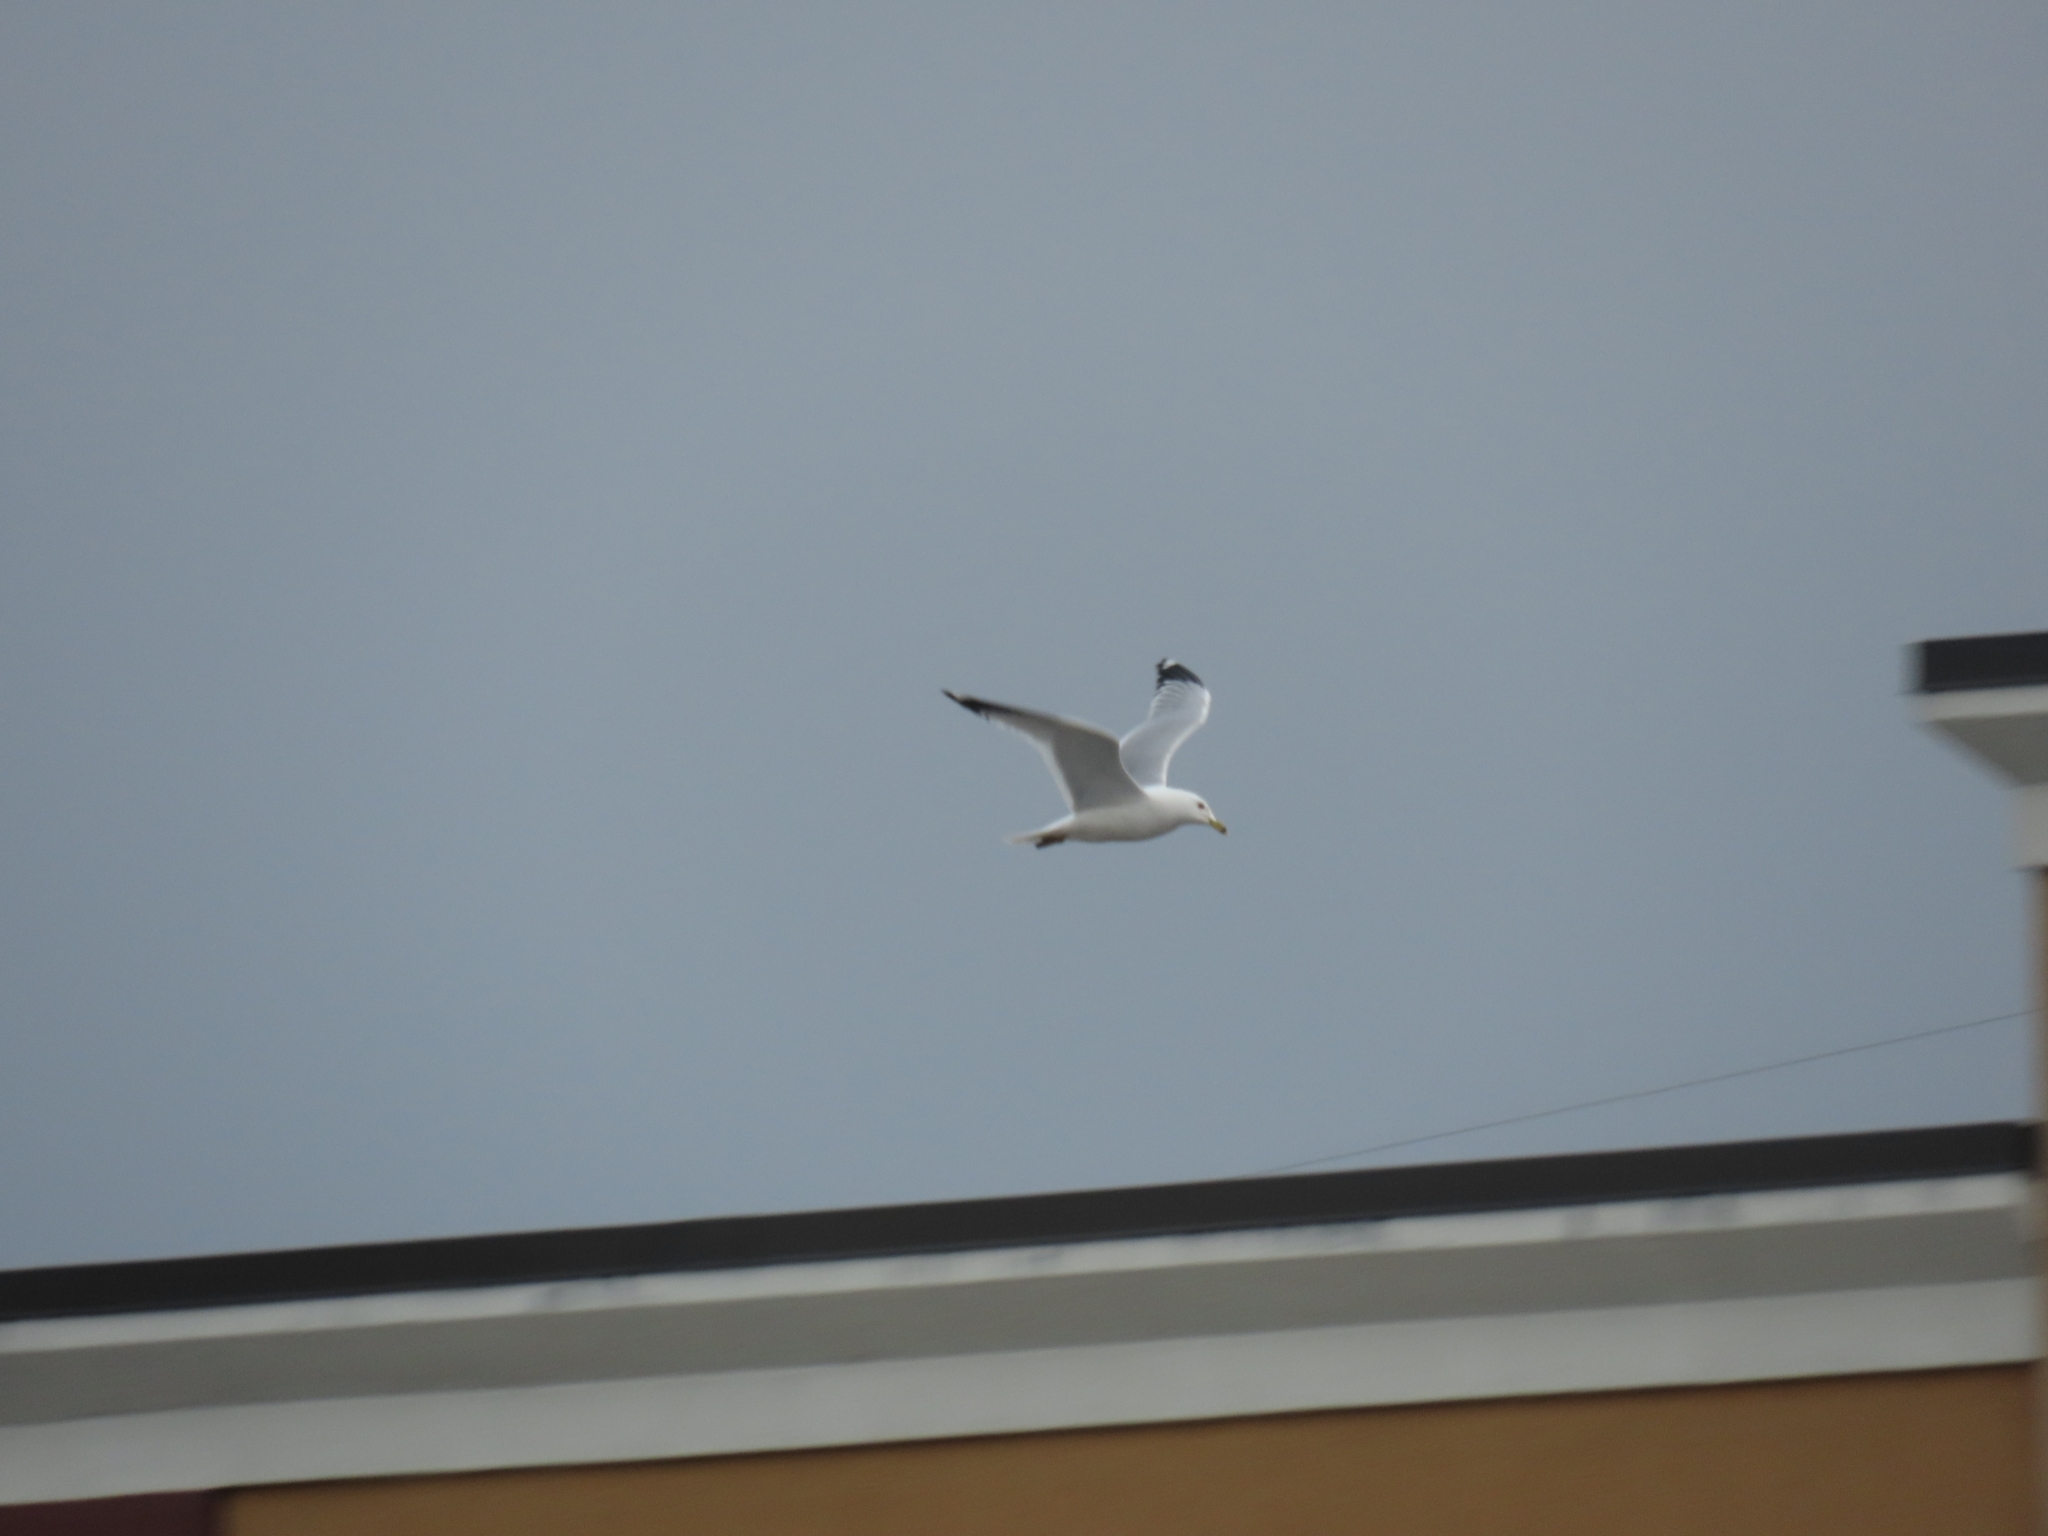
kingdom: Animalia
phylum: Chordata
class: Aves
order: Charadriiformes
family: Laridae
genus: Larus
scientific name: Larus delawarensis
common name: Ring-billed gull
